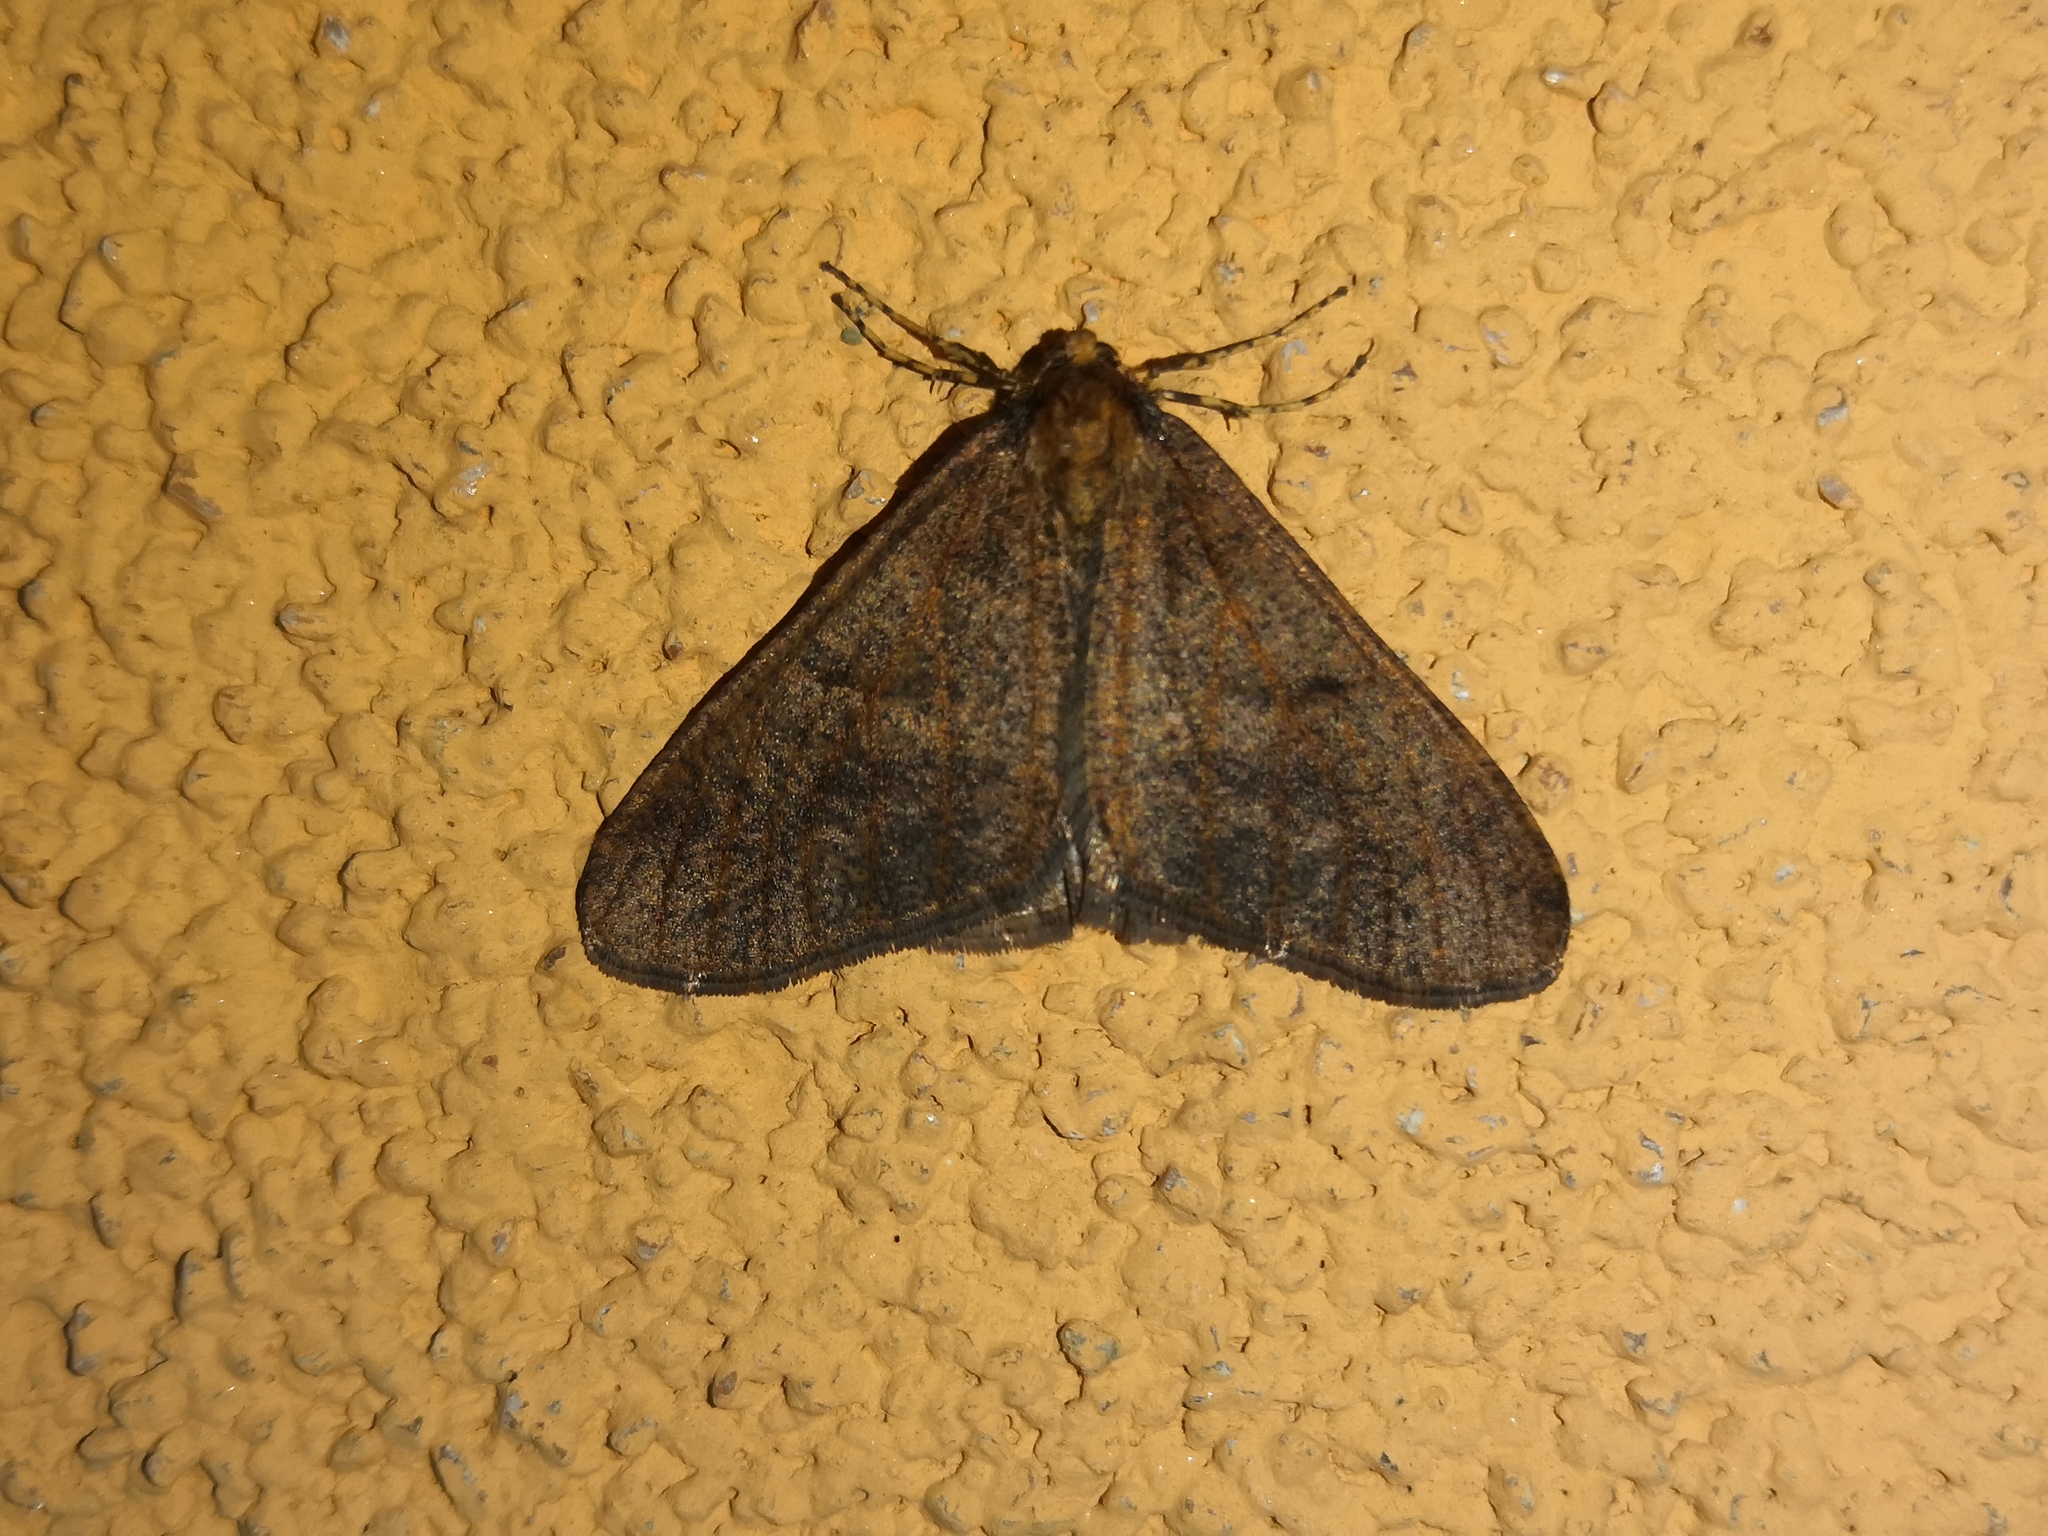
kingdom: Animalia
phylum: Arthropoda
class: Insecta
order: Lepidoptera
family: Geometridae
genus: Erannis
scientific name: Erannis defoliaria
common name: Mottled umber
